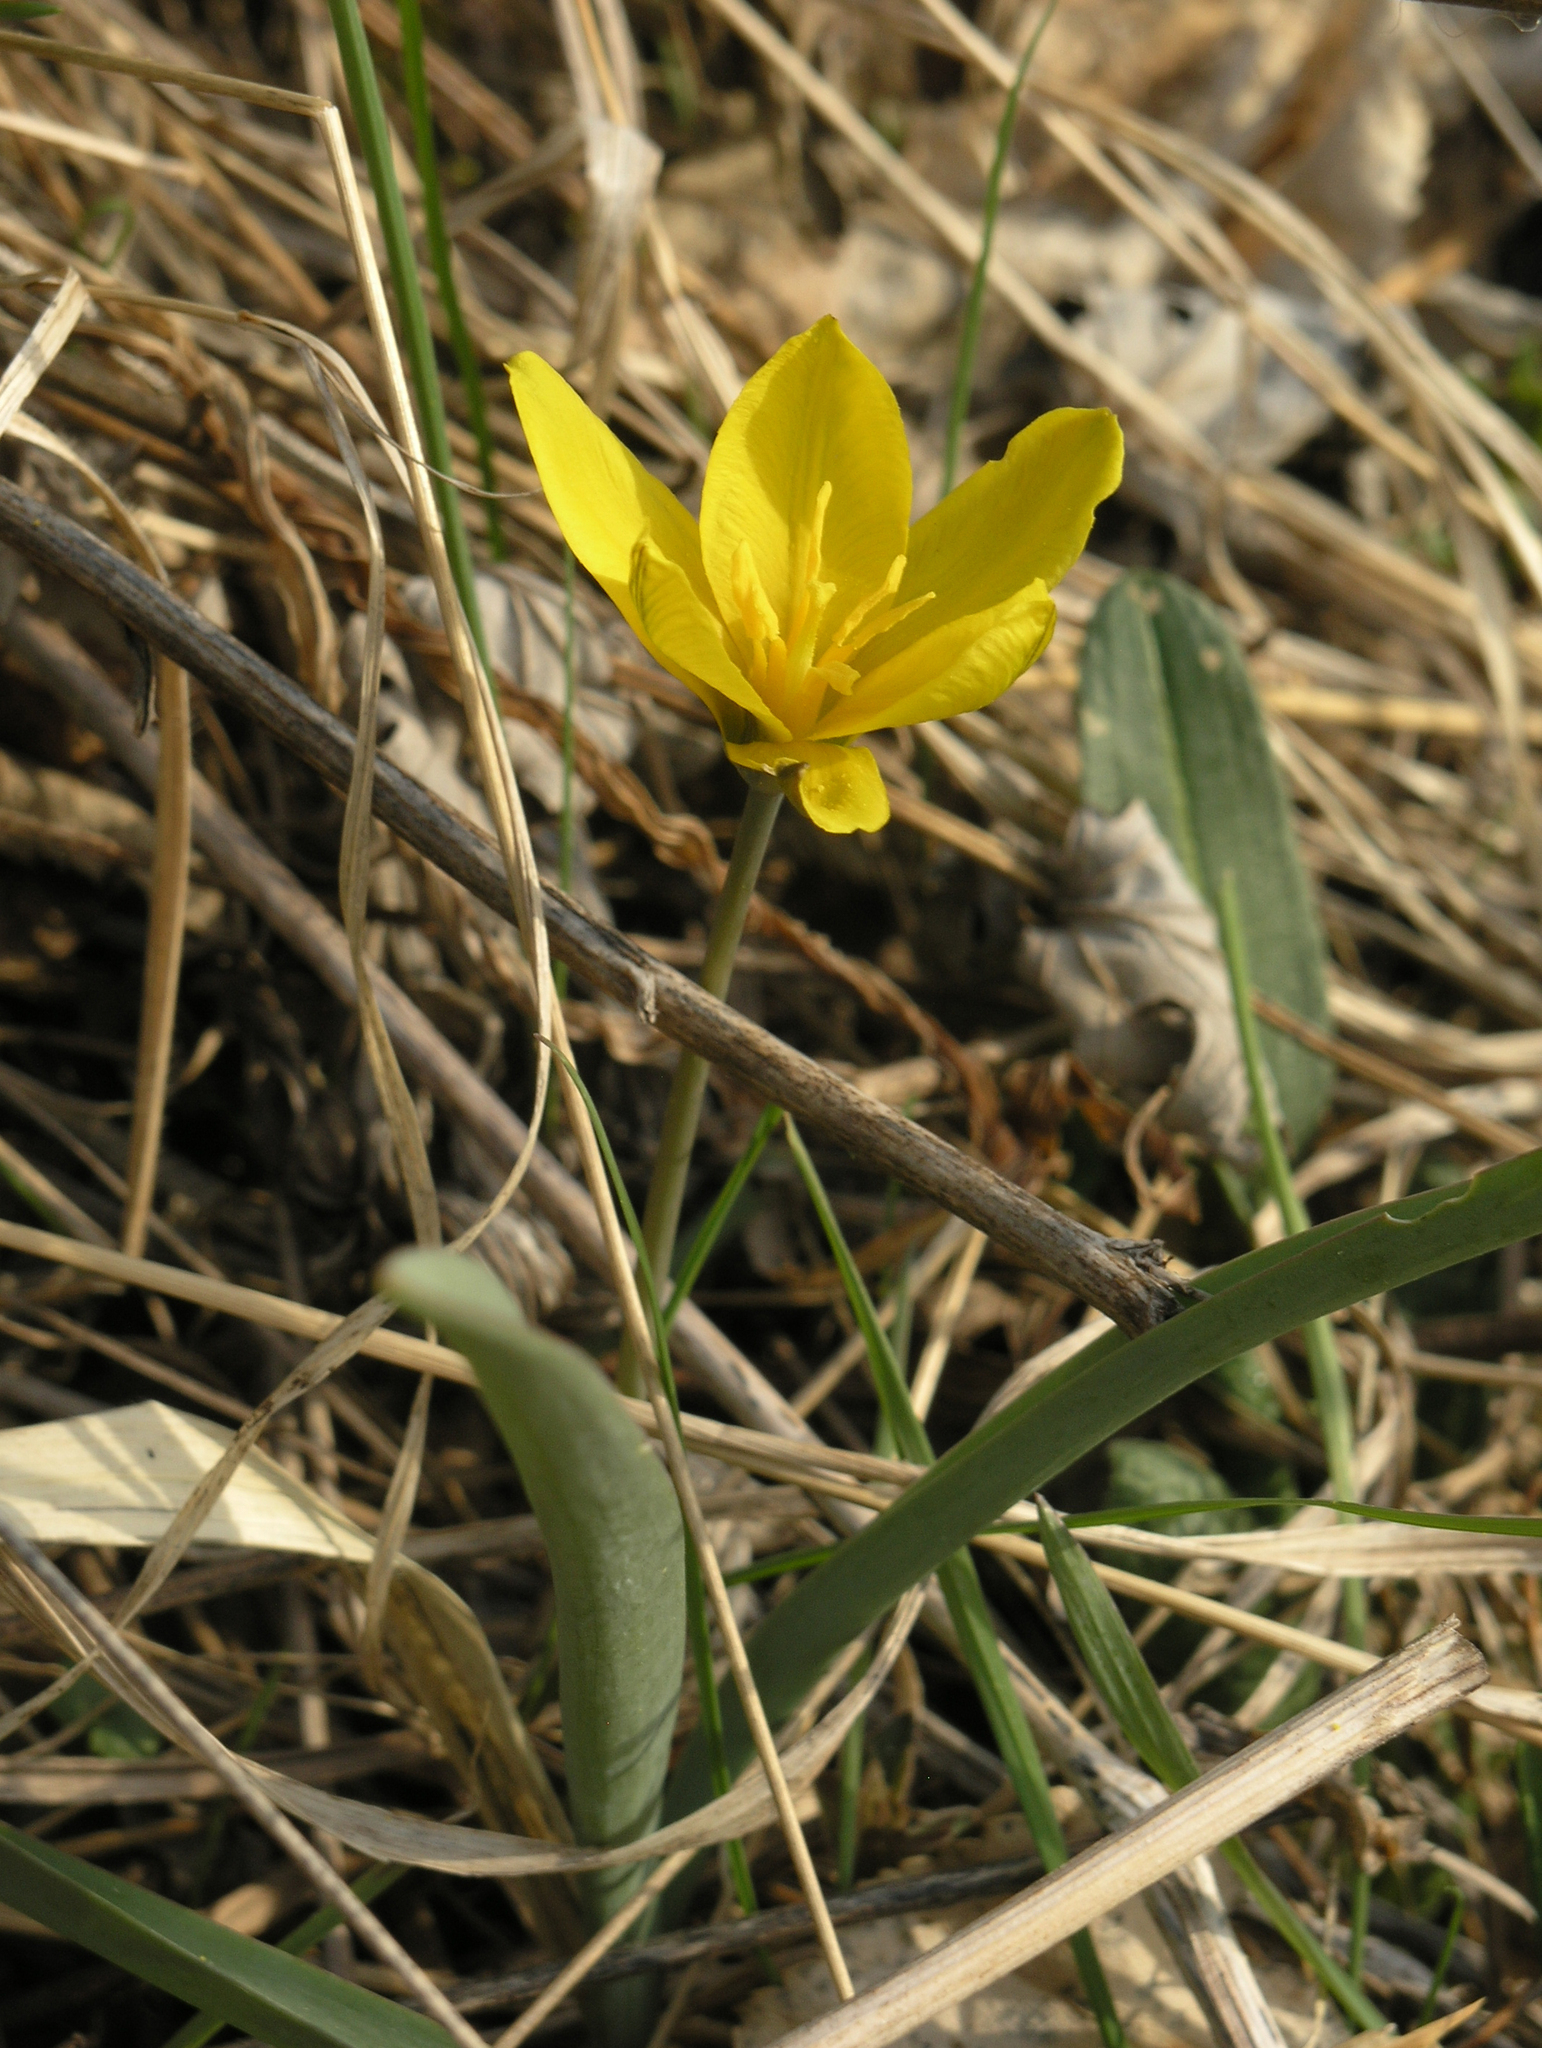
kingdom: Plantae
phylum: Tracheophyta
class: Liliopsida
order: Liliales
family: Liliaceae
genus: Tulipa
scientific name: Tulipa uniflora
